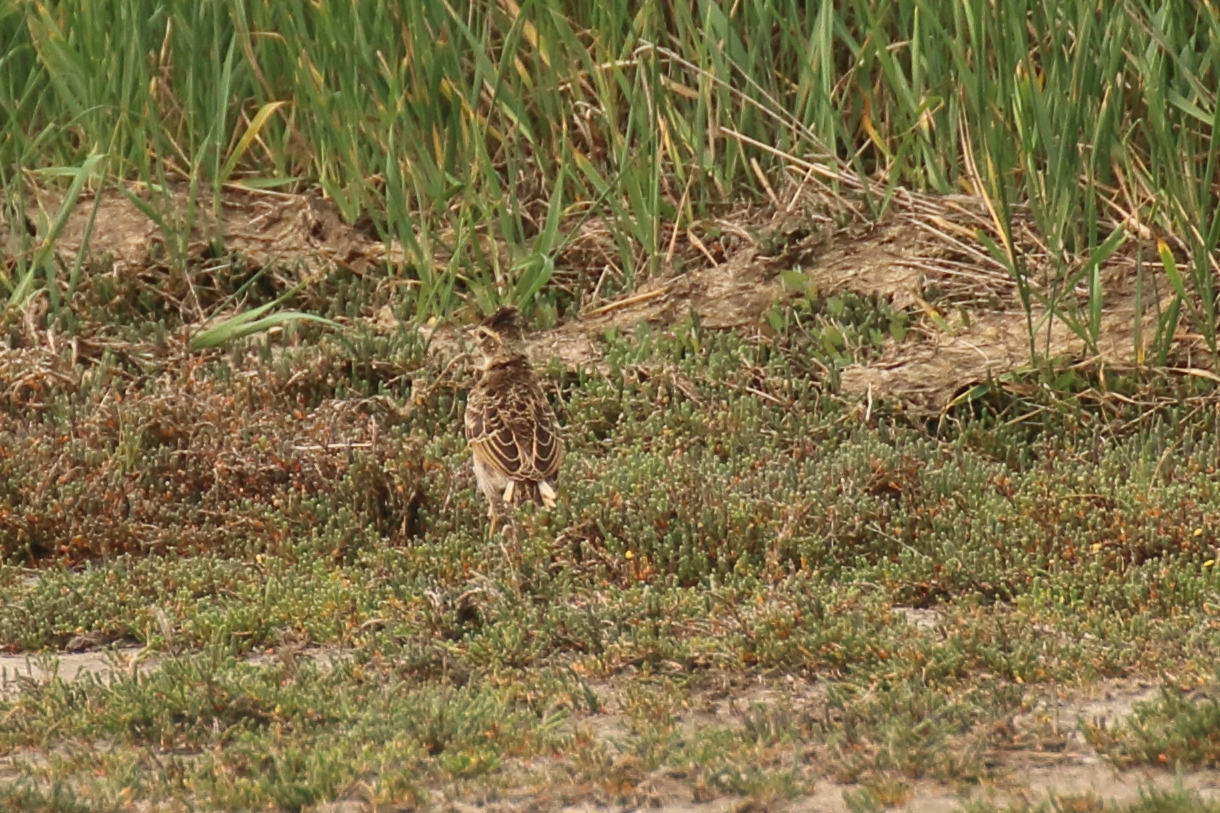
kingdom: Animalia
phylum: Chordata
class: Aves
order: Passeriformes
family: Alaudidae
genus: Alauda
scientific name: Alauda arvensis
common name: Eurasian skylark
